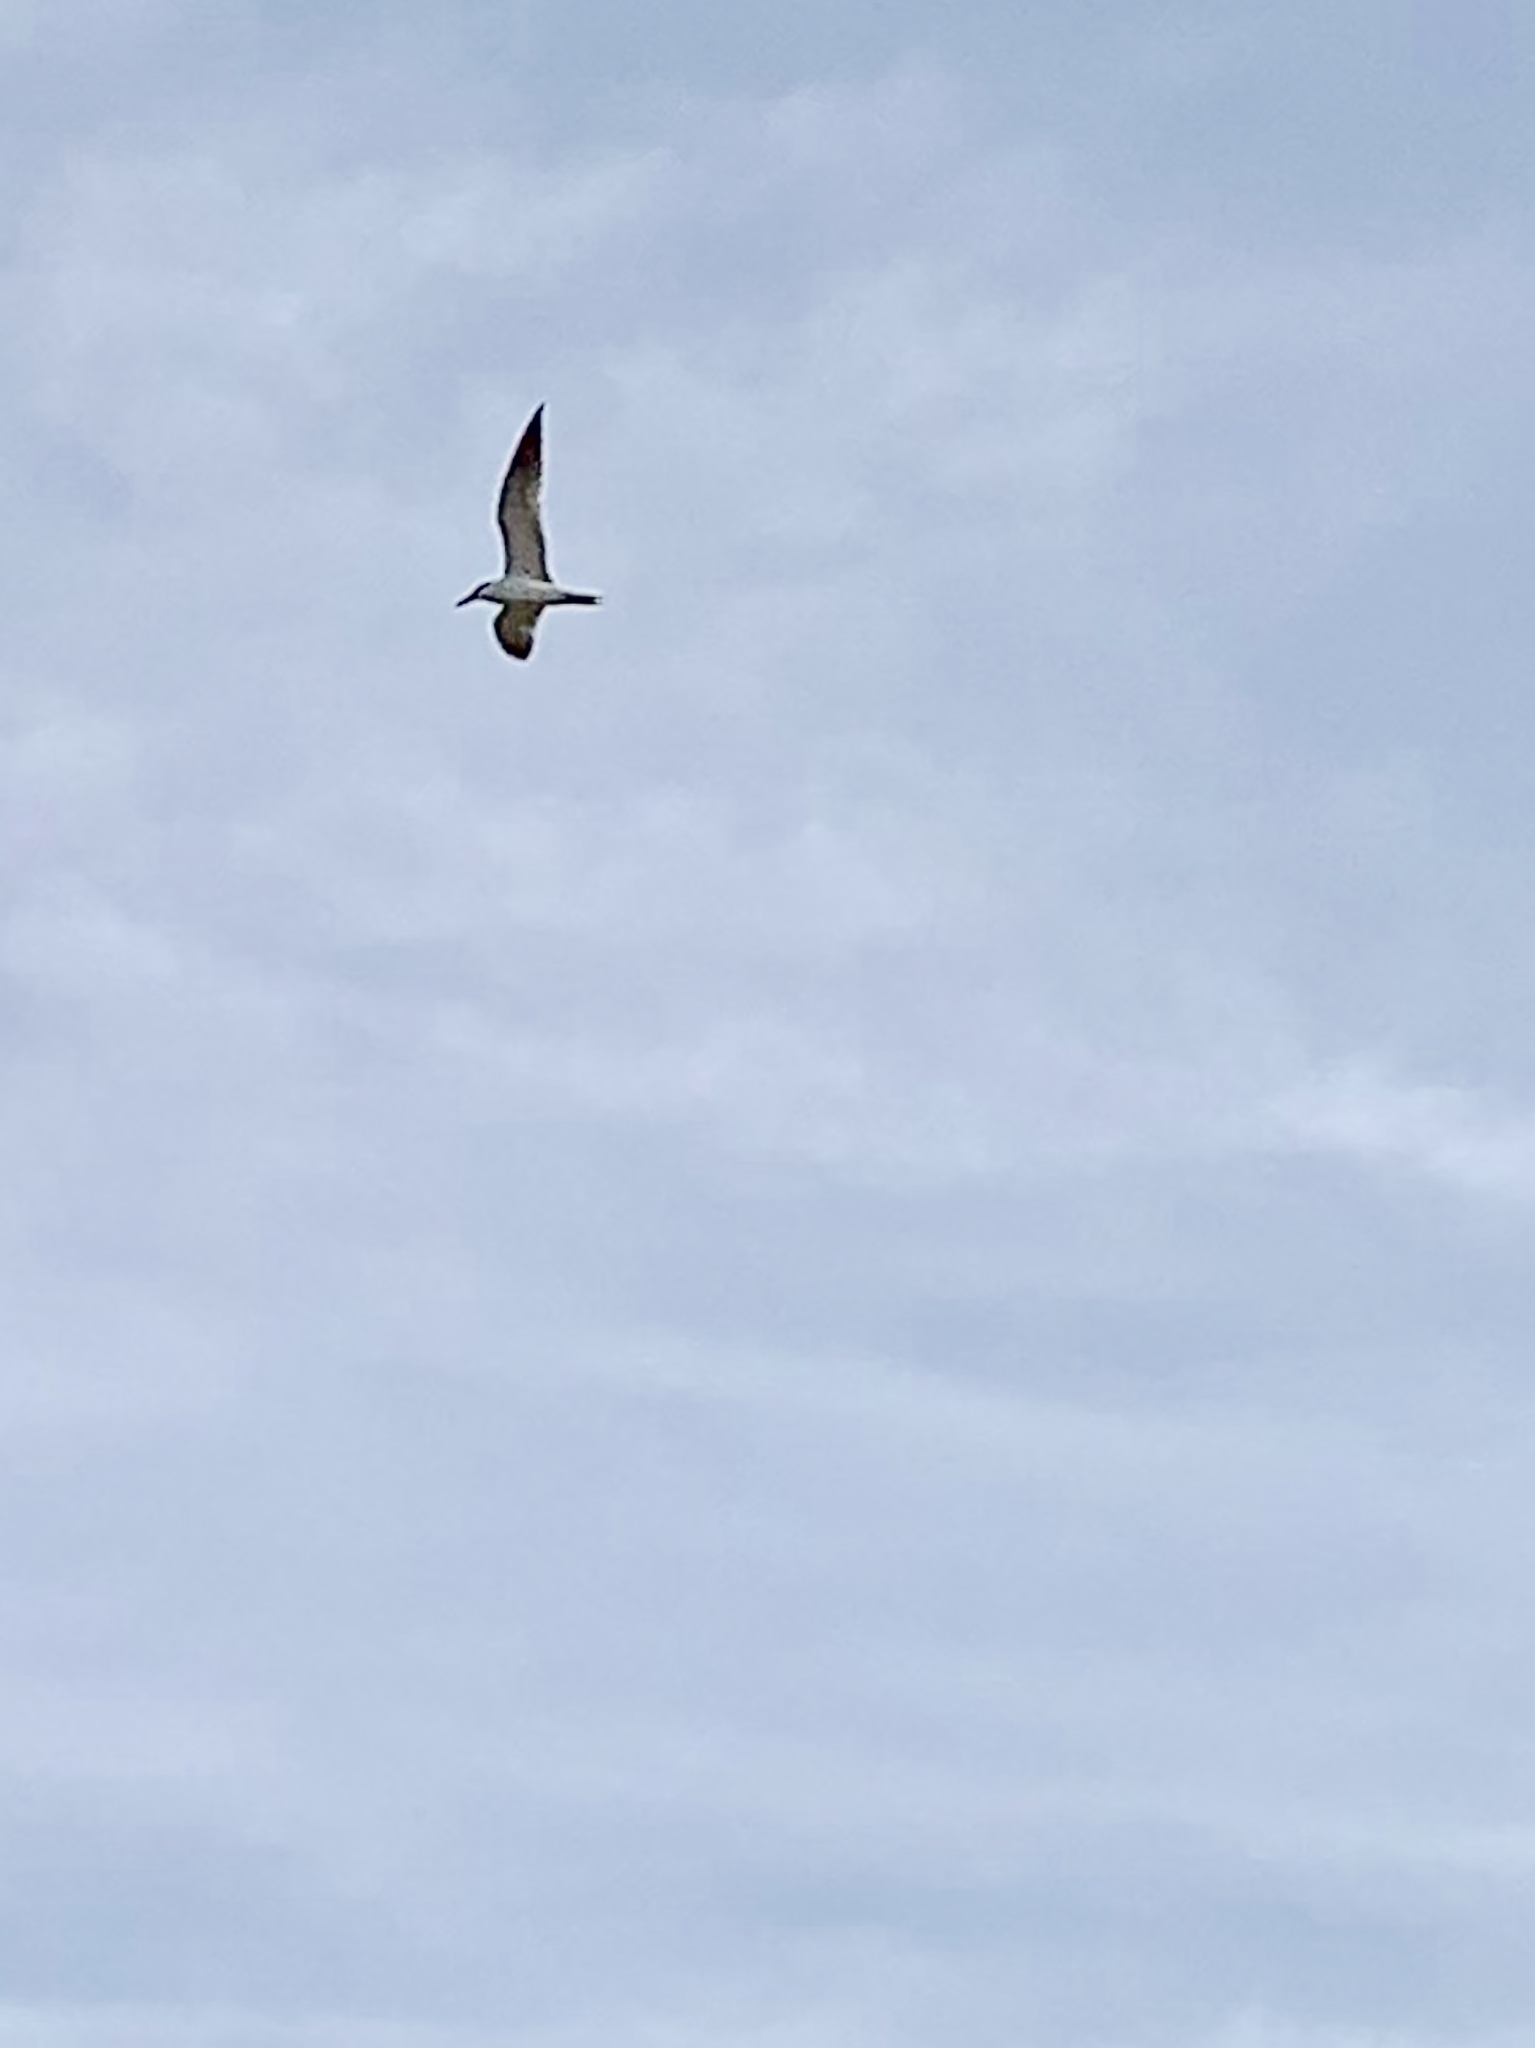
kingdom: Animalia
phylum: Chordata
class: Aves
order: Charadriiformes
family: Laridae
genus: Hydroprogne
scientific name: Hydroprogne caspia
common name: Caspian tern
